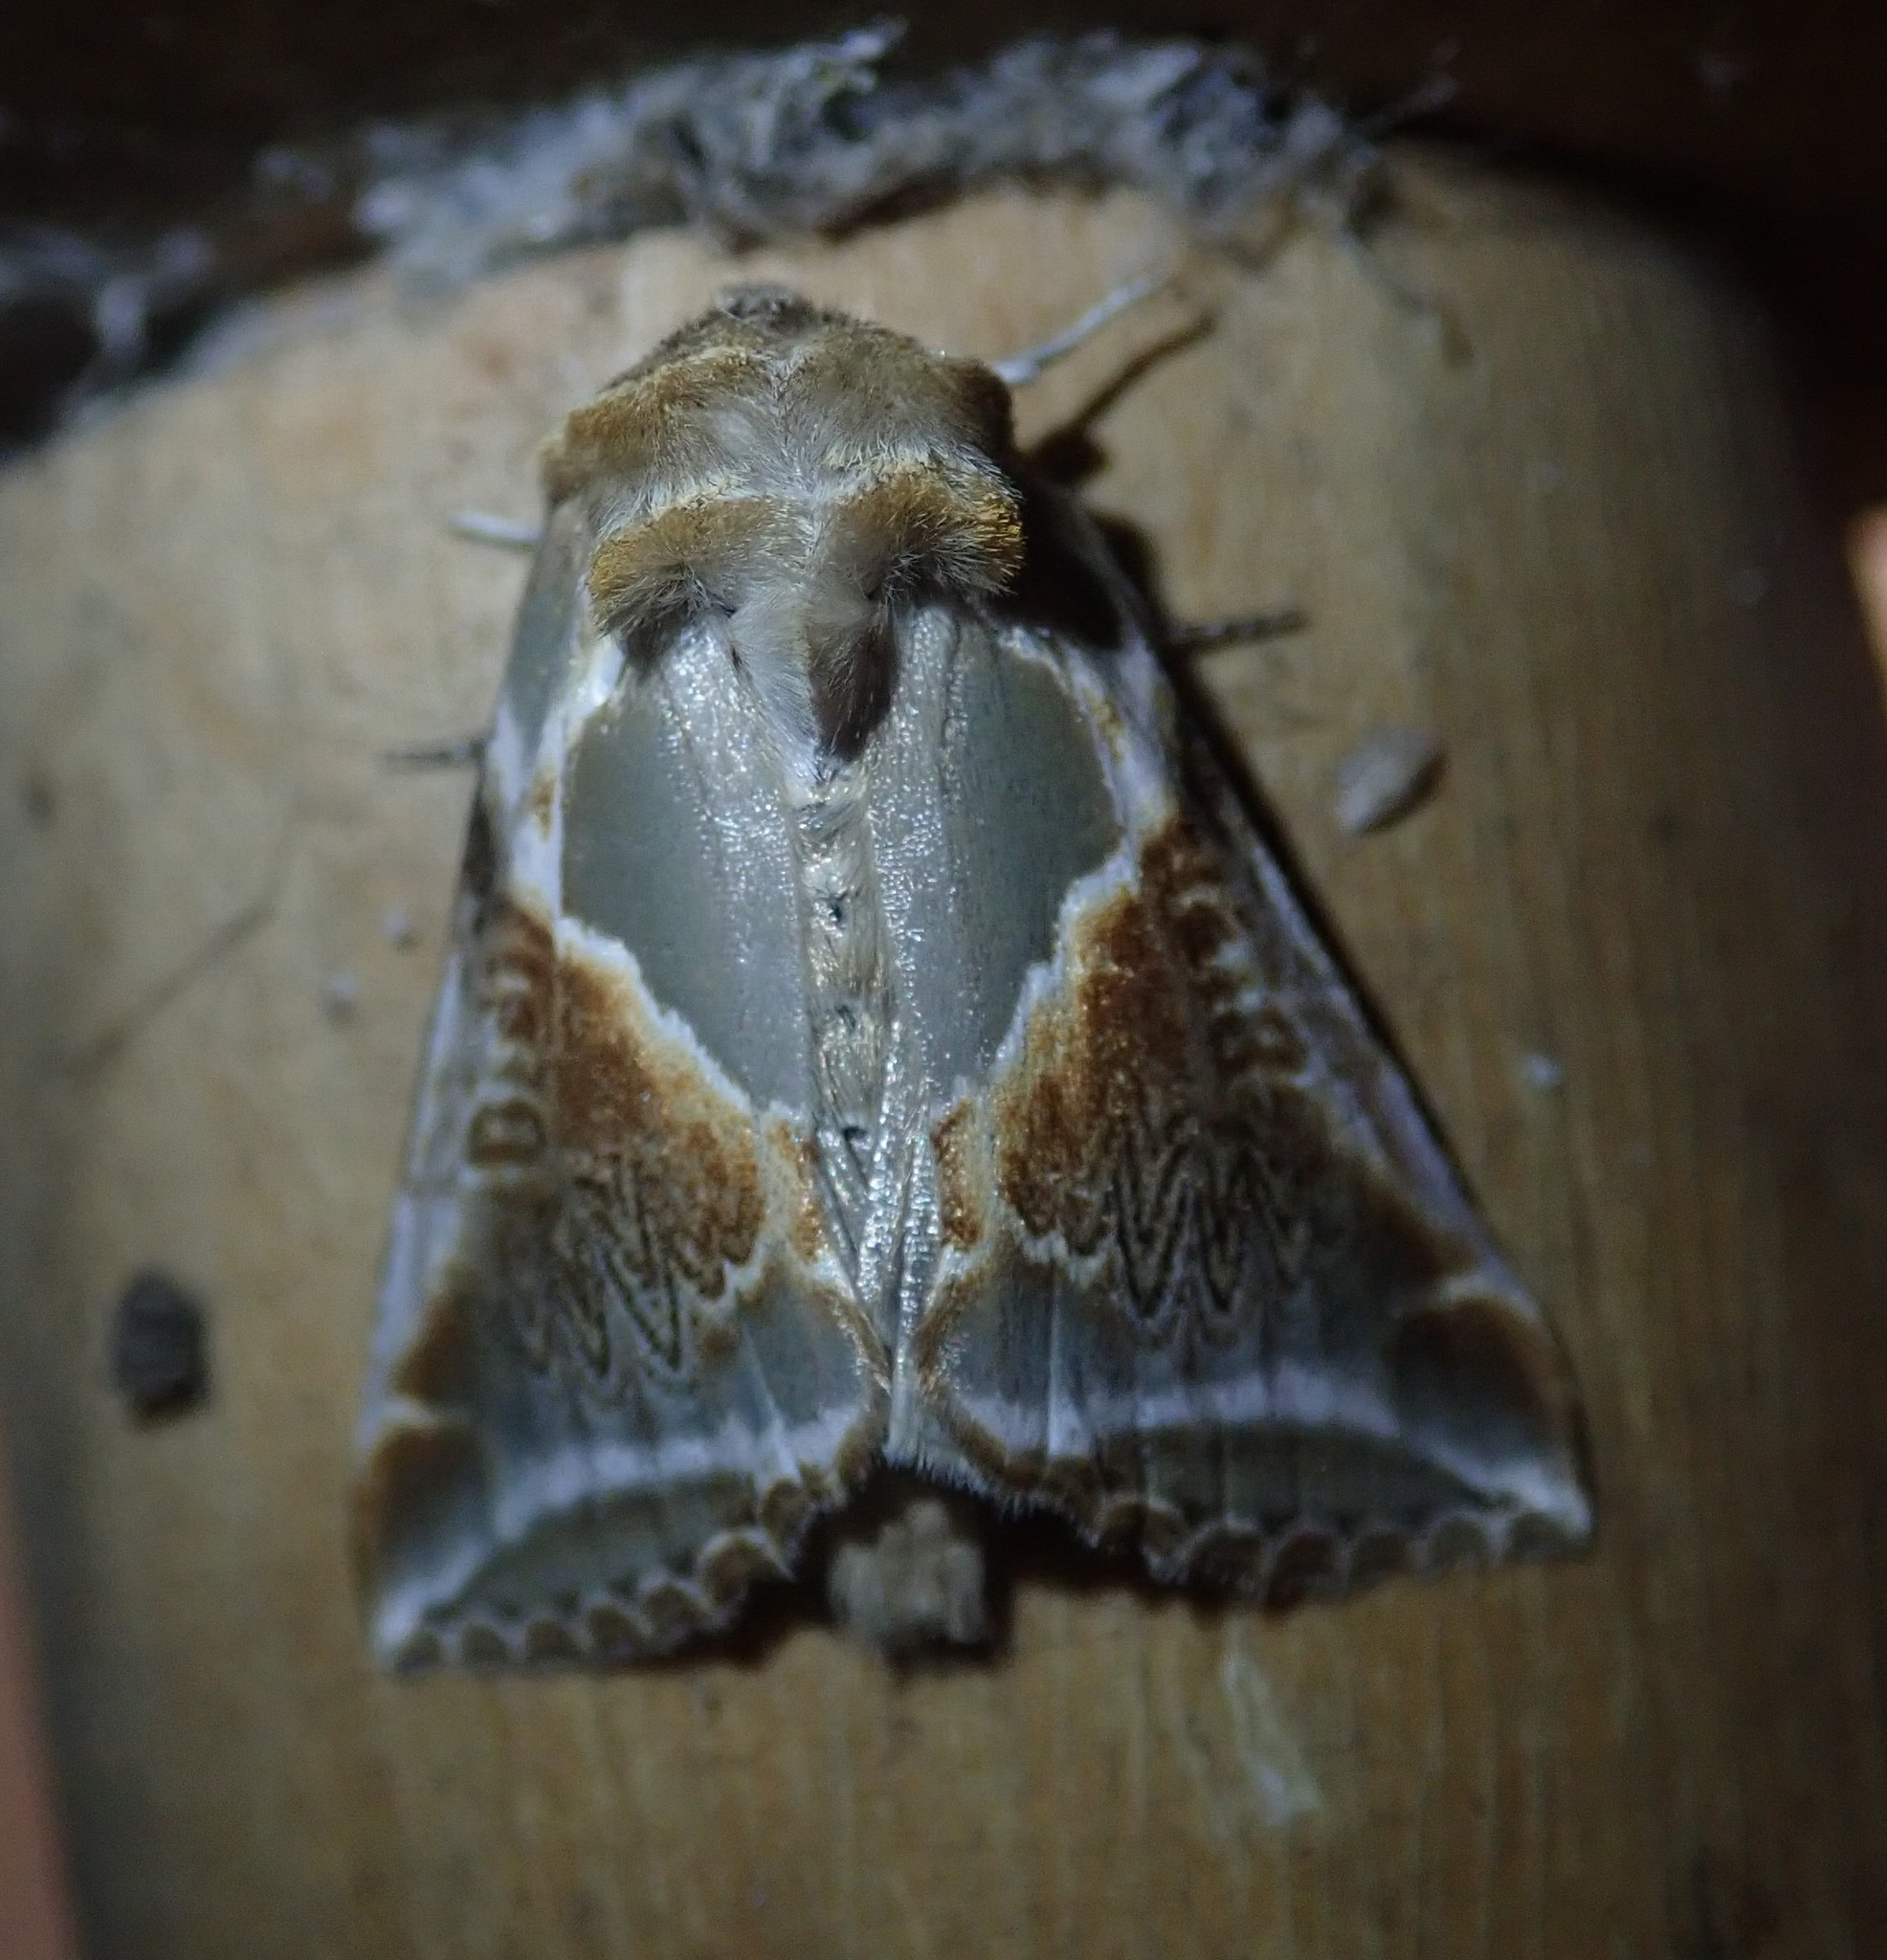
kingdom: Animalia
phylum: Arthropoda
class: Insecta
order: Lepidoptera
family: Drepanidae
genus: Habrosyne
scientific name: Habrosyne pyritoides
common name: Buff arches
